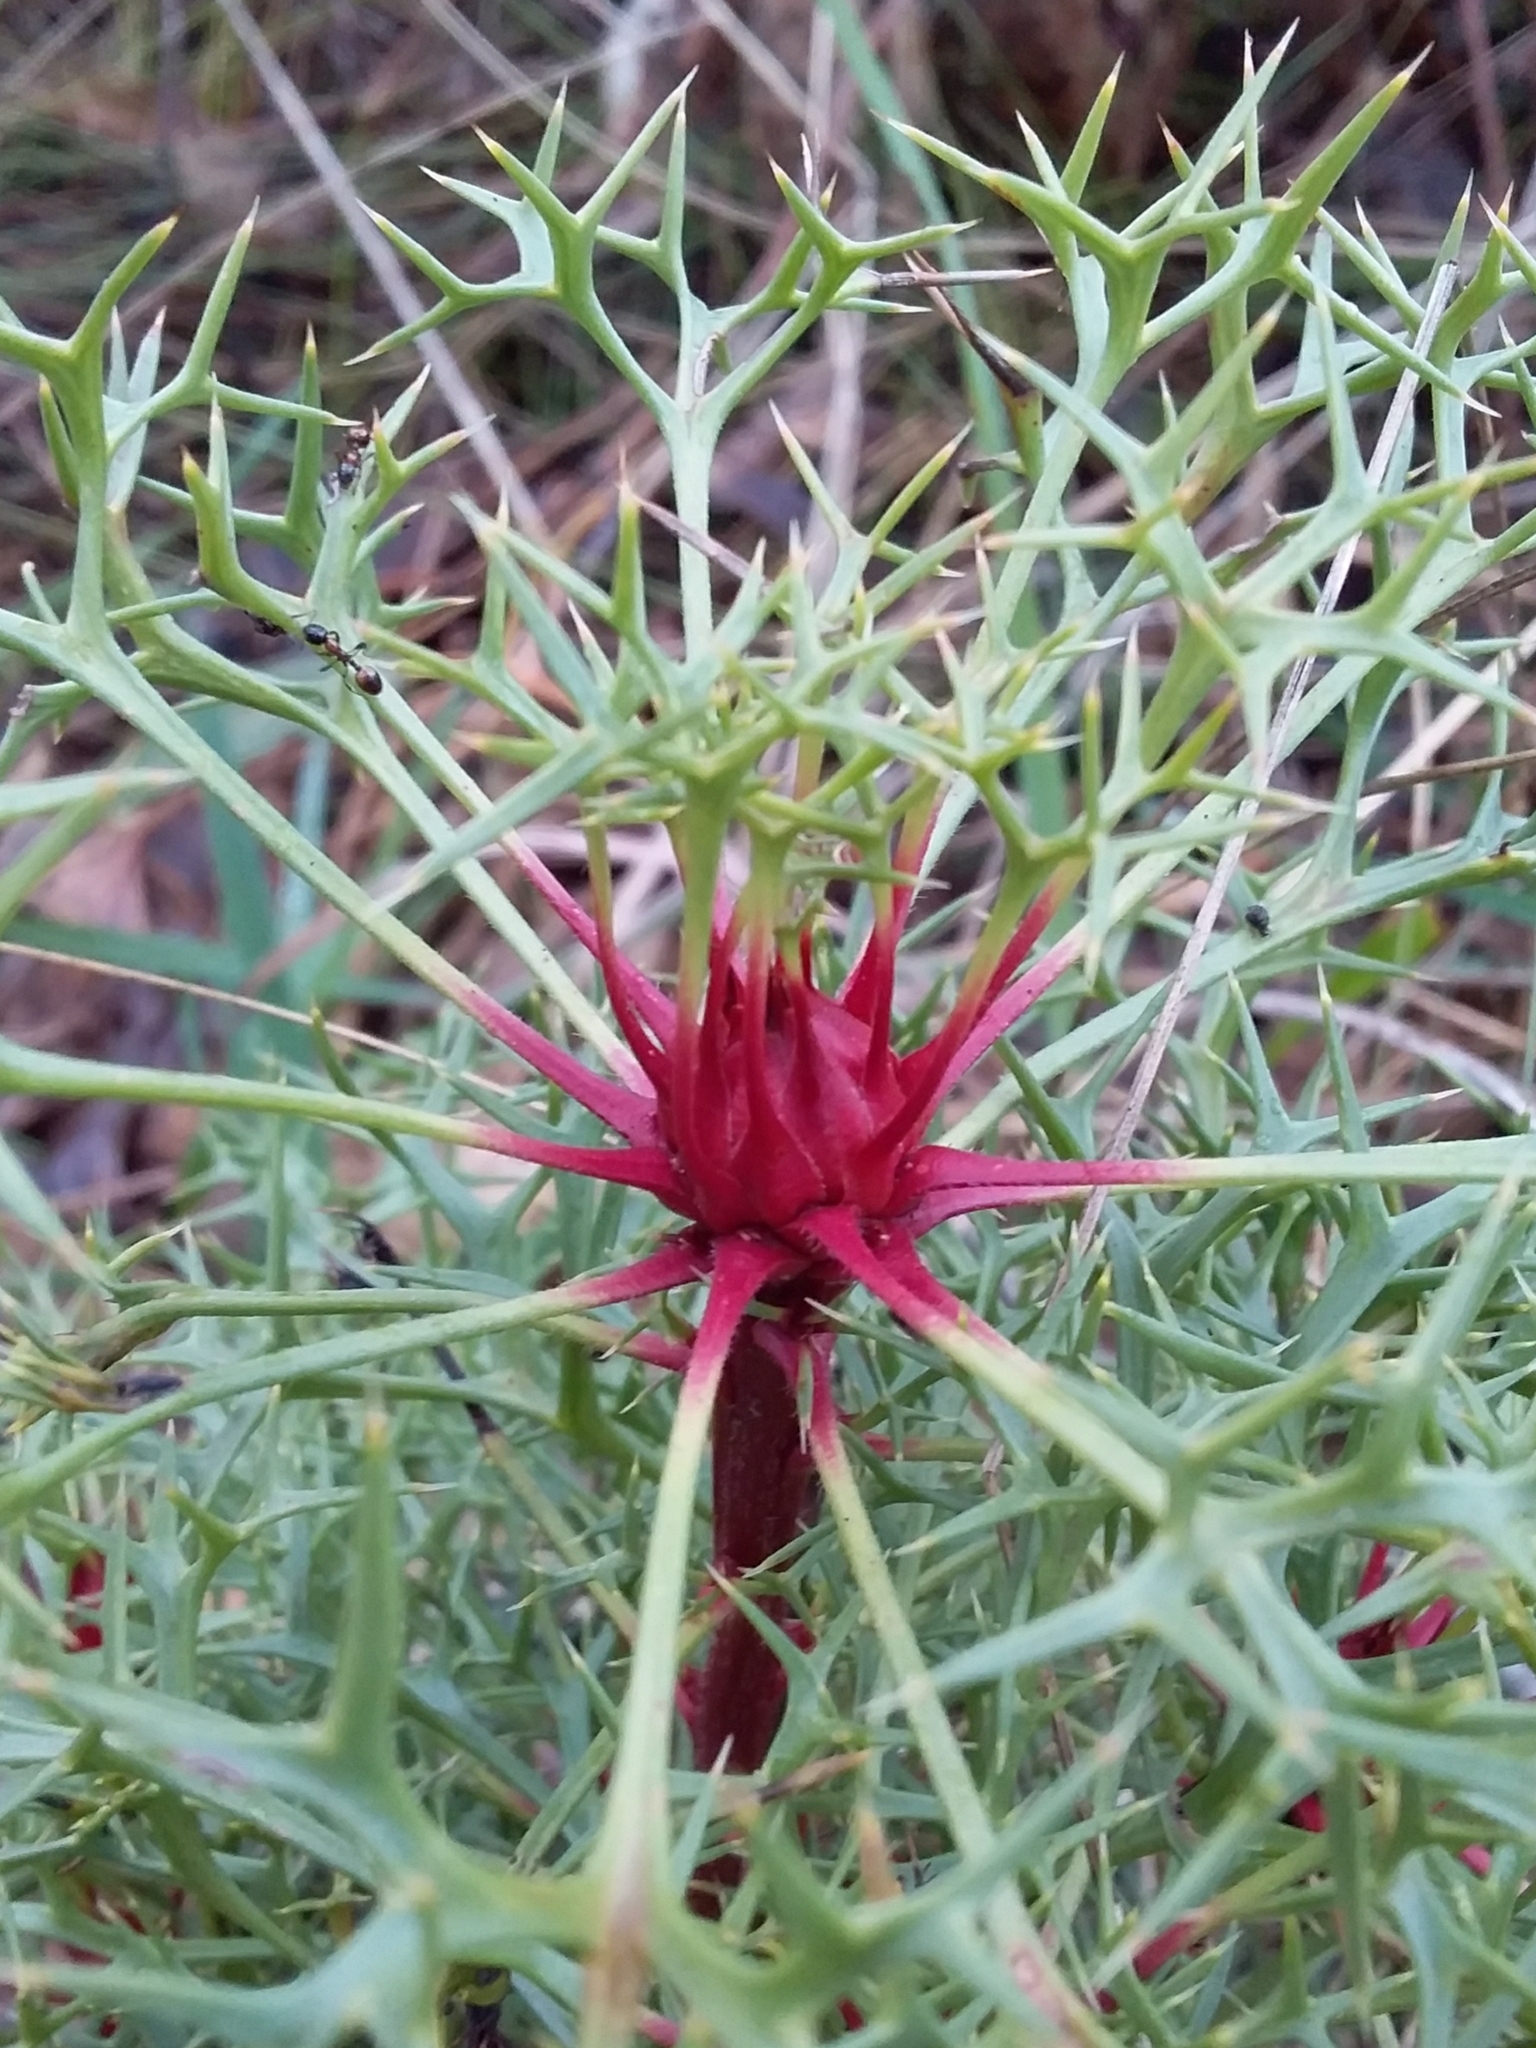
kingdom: Plantae
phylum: Tracheophyta
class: Magnoliopsida
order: Proteales
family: Proteaceae
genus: Isopogon
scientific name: Isopogon ceratophyllus
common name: Horny cone-bush
